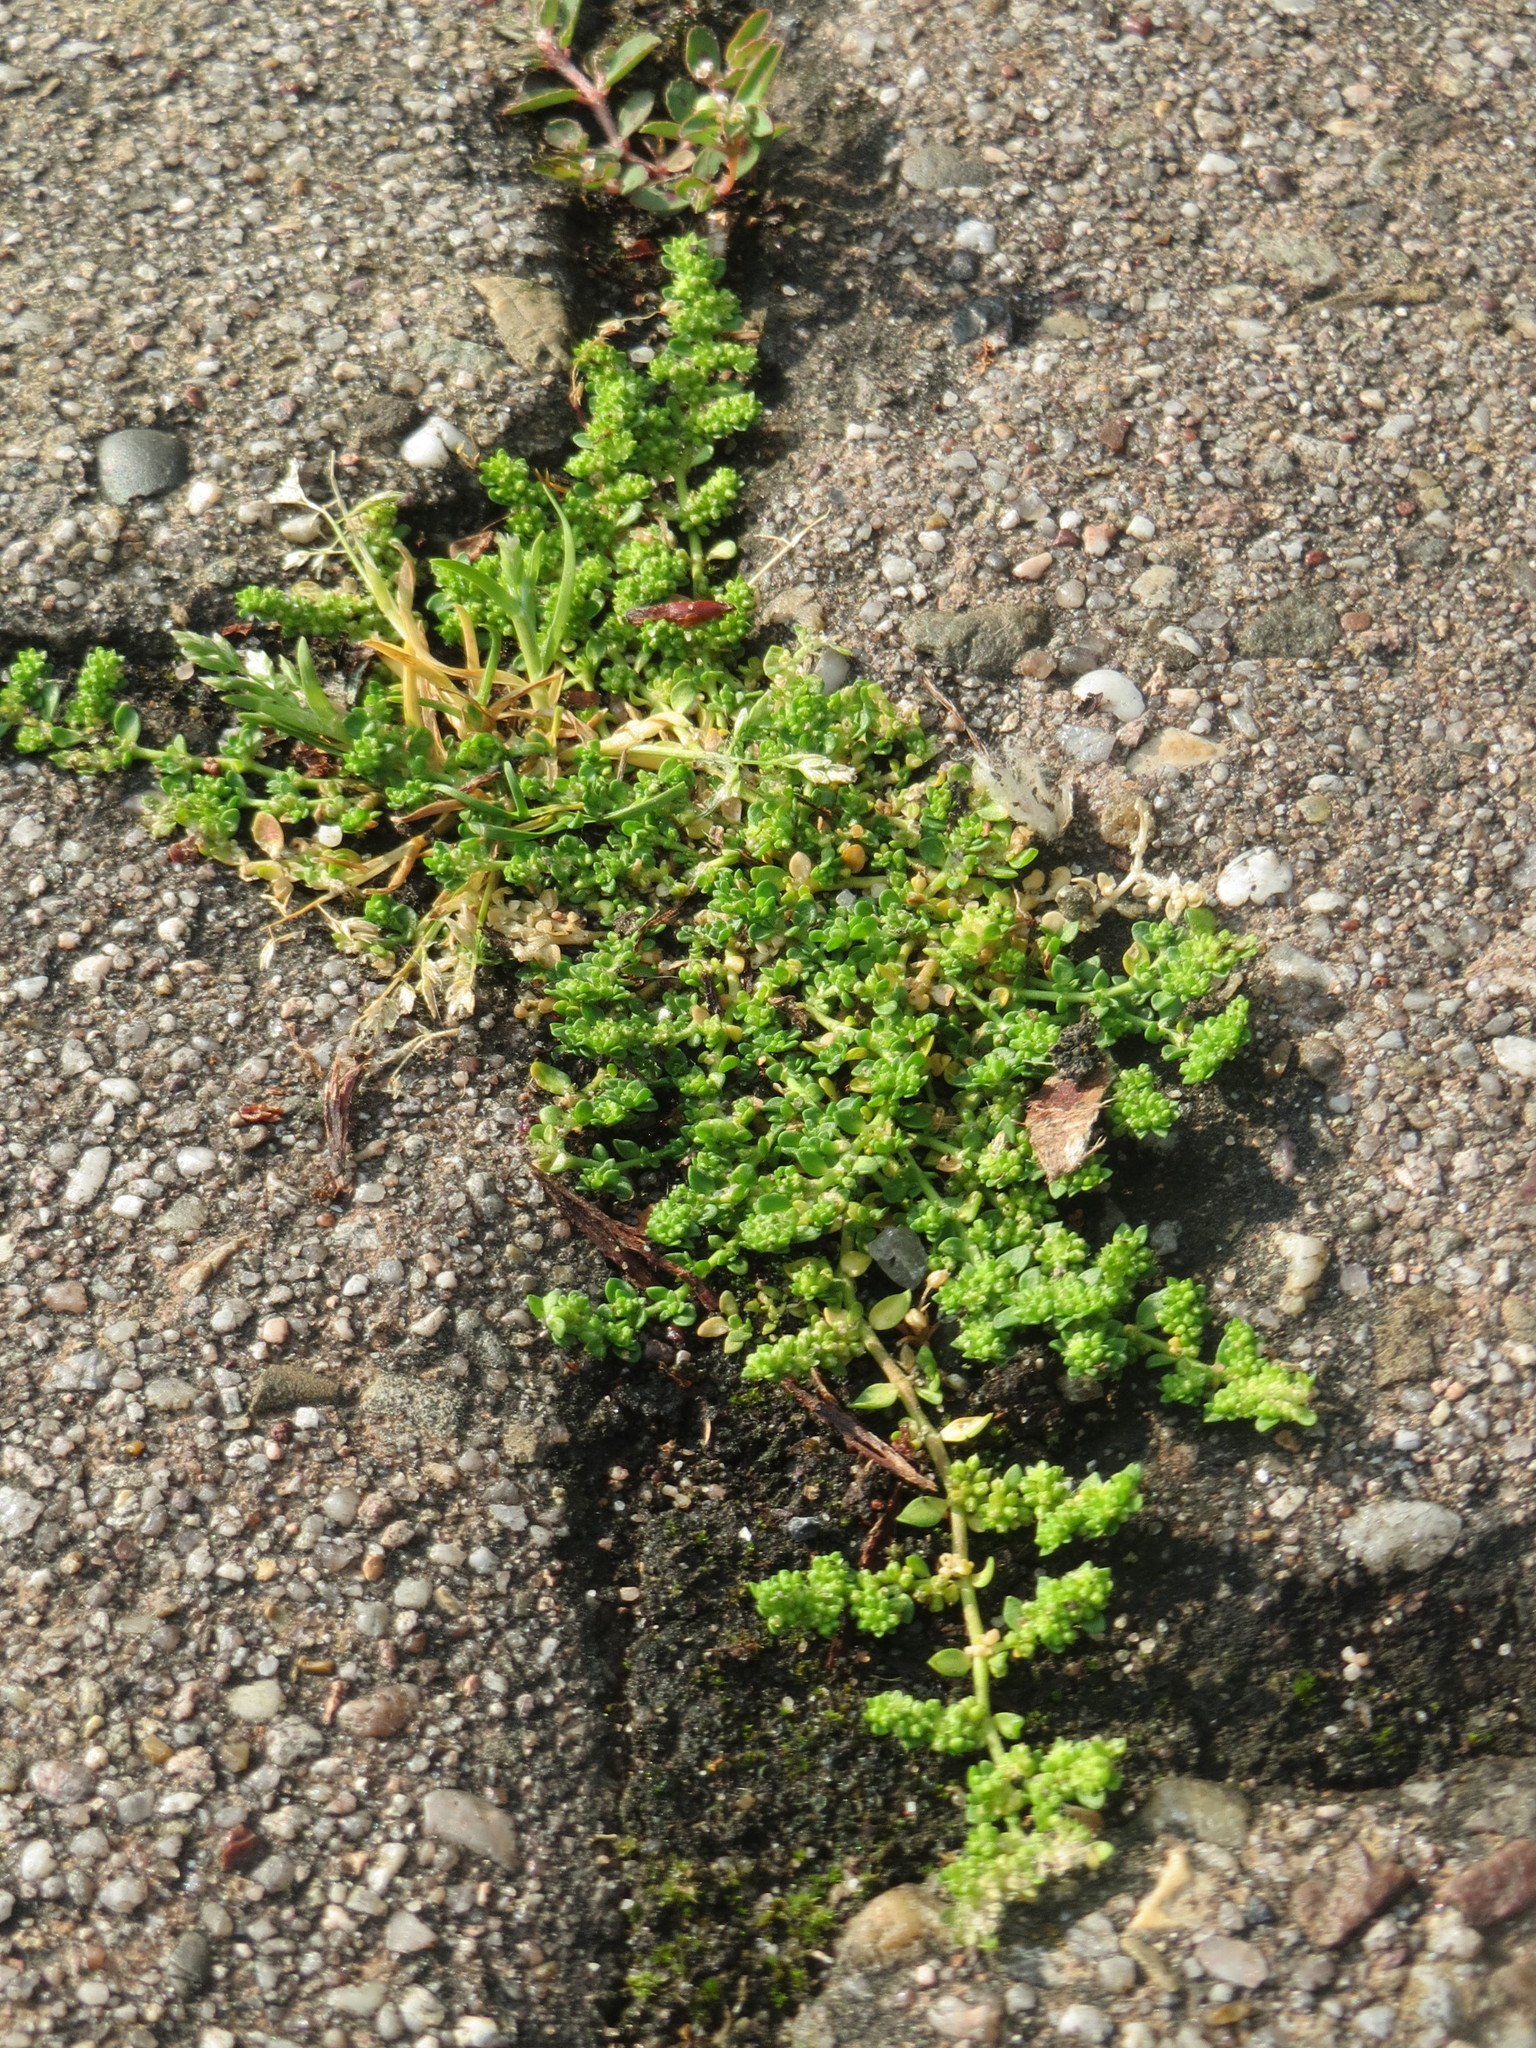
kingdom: Plantae
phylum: Tracheophyta
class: Magnoliopsida
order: Caryophyllales
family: Caryophyllaceae
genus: Herniaria
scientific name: Herniaria glabra
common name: Smooth rupturewort
